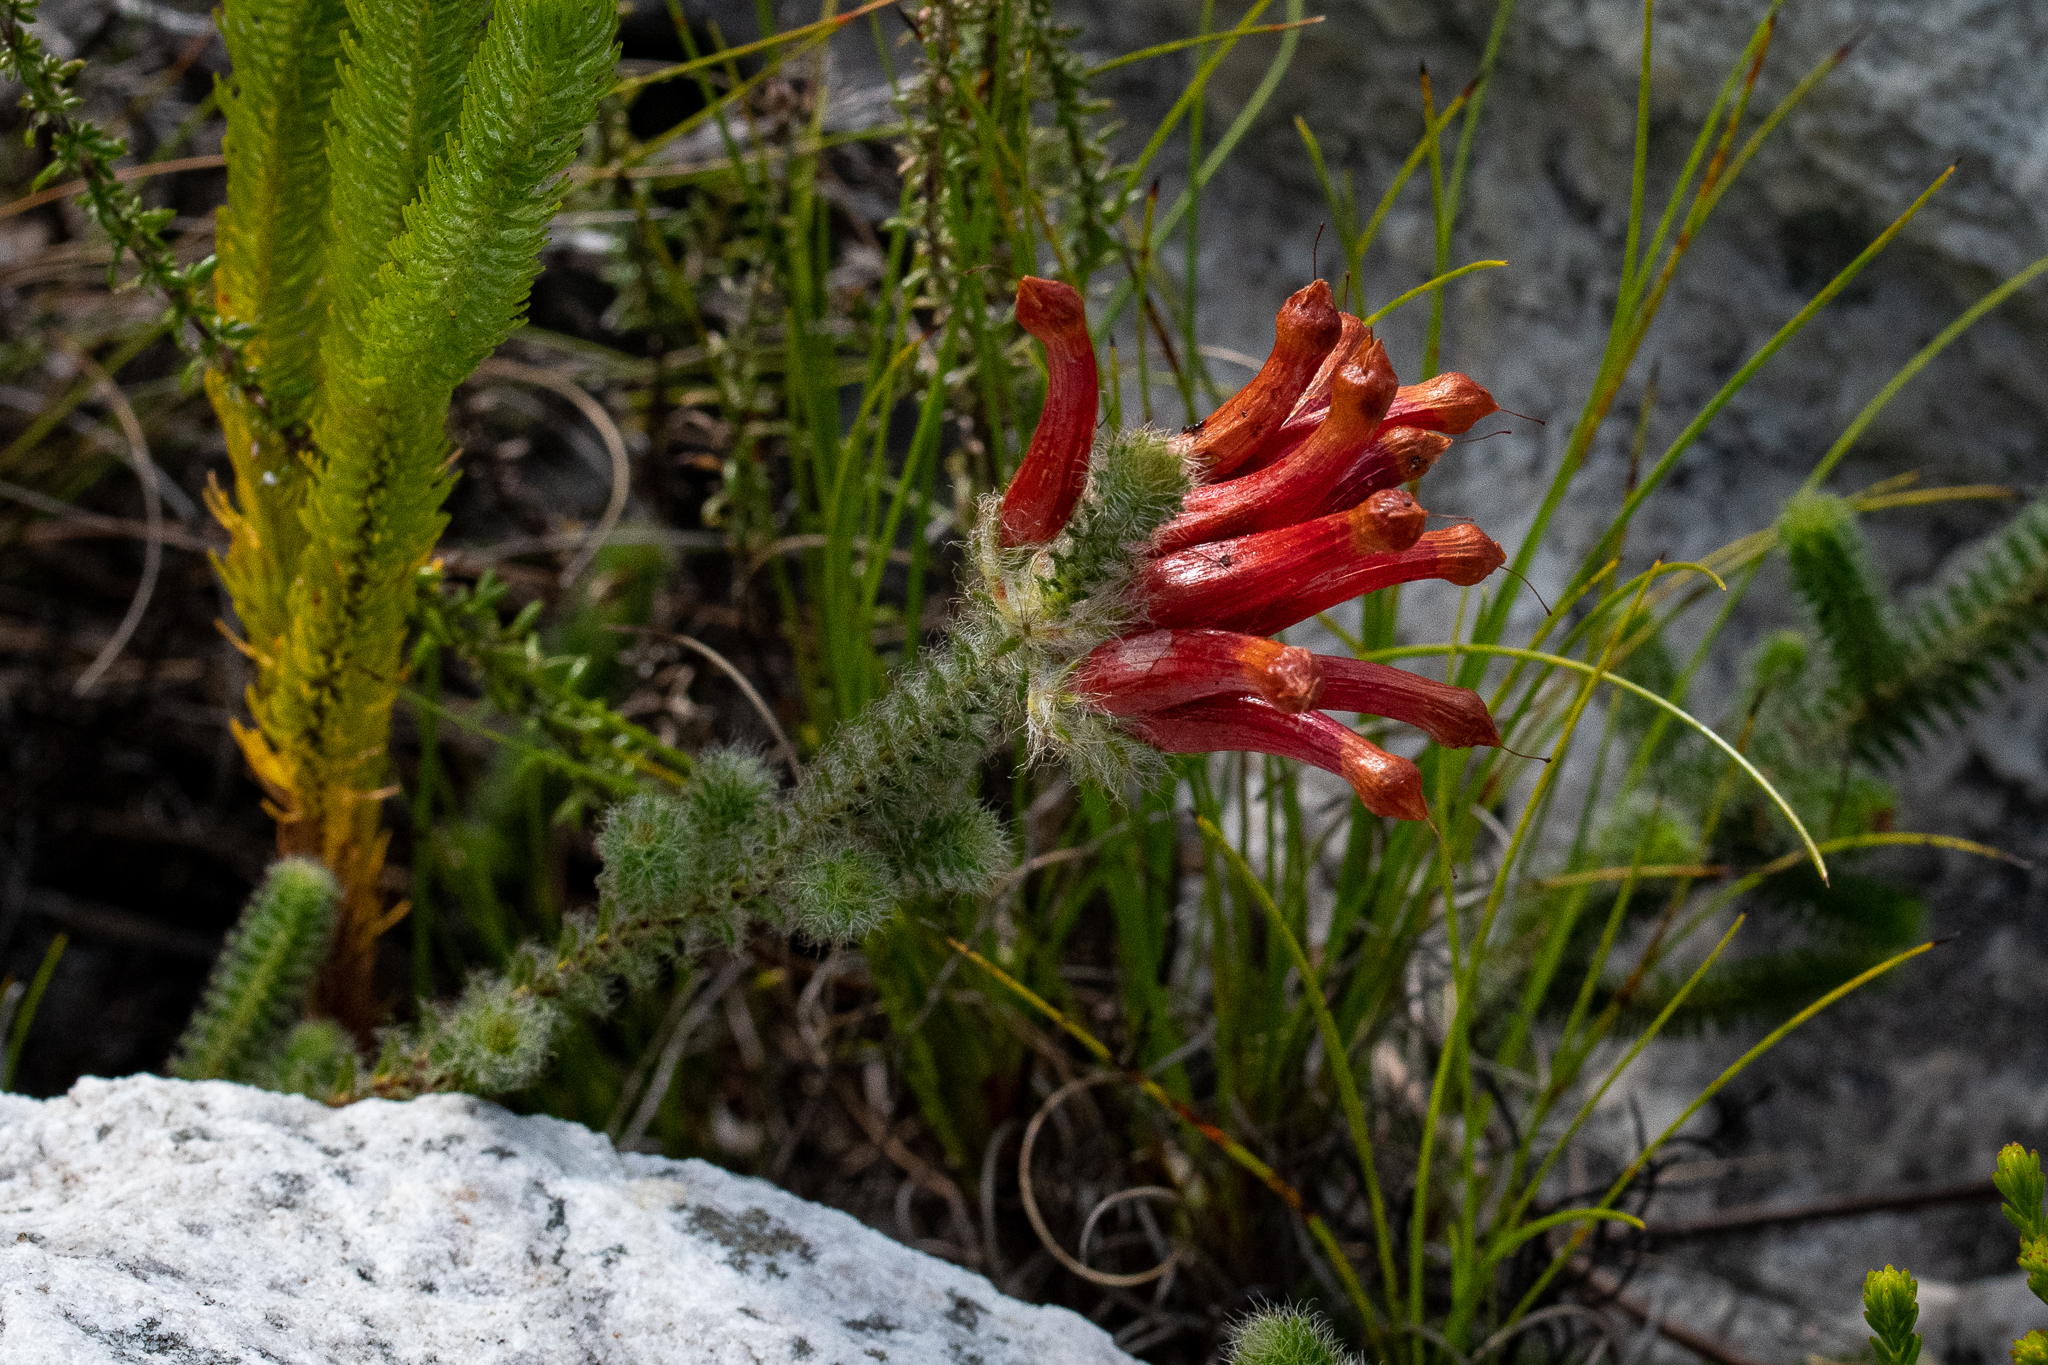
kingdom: Plantae
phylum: Tracheophyta
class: Magnoliopsida
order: Ericales
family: Ericaceae
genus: Erica
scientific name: Erica massonii
